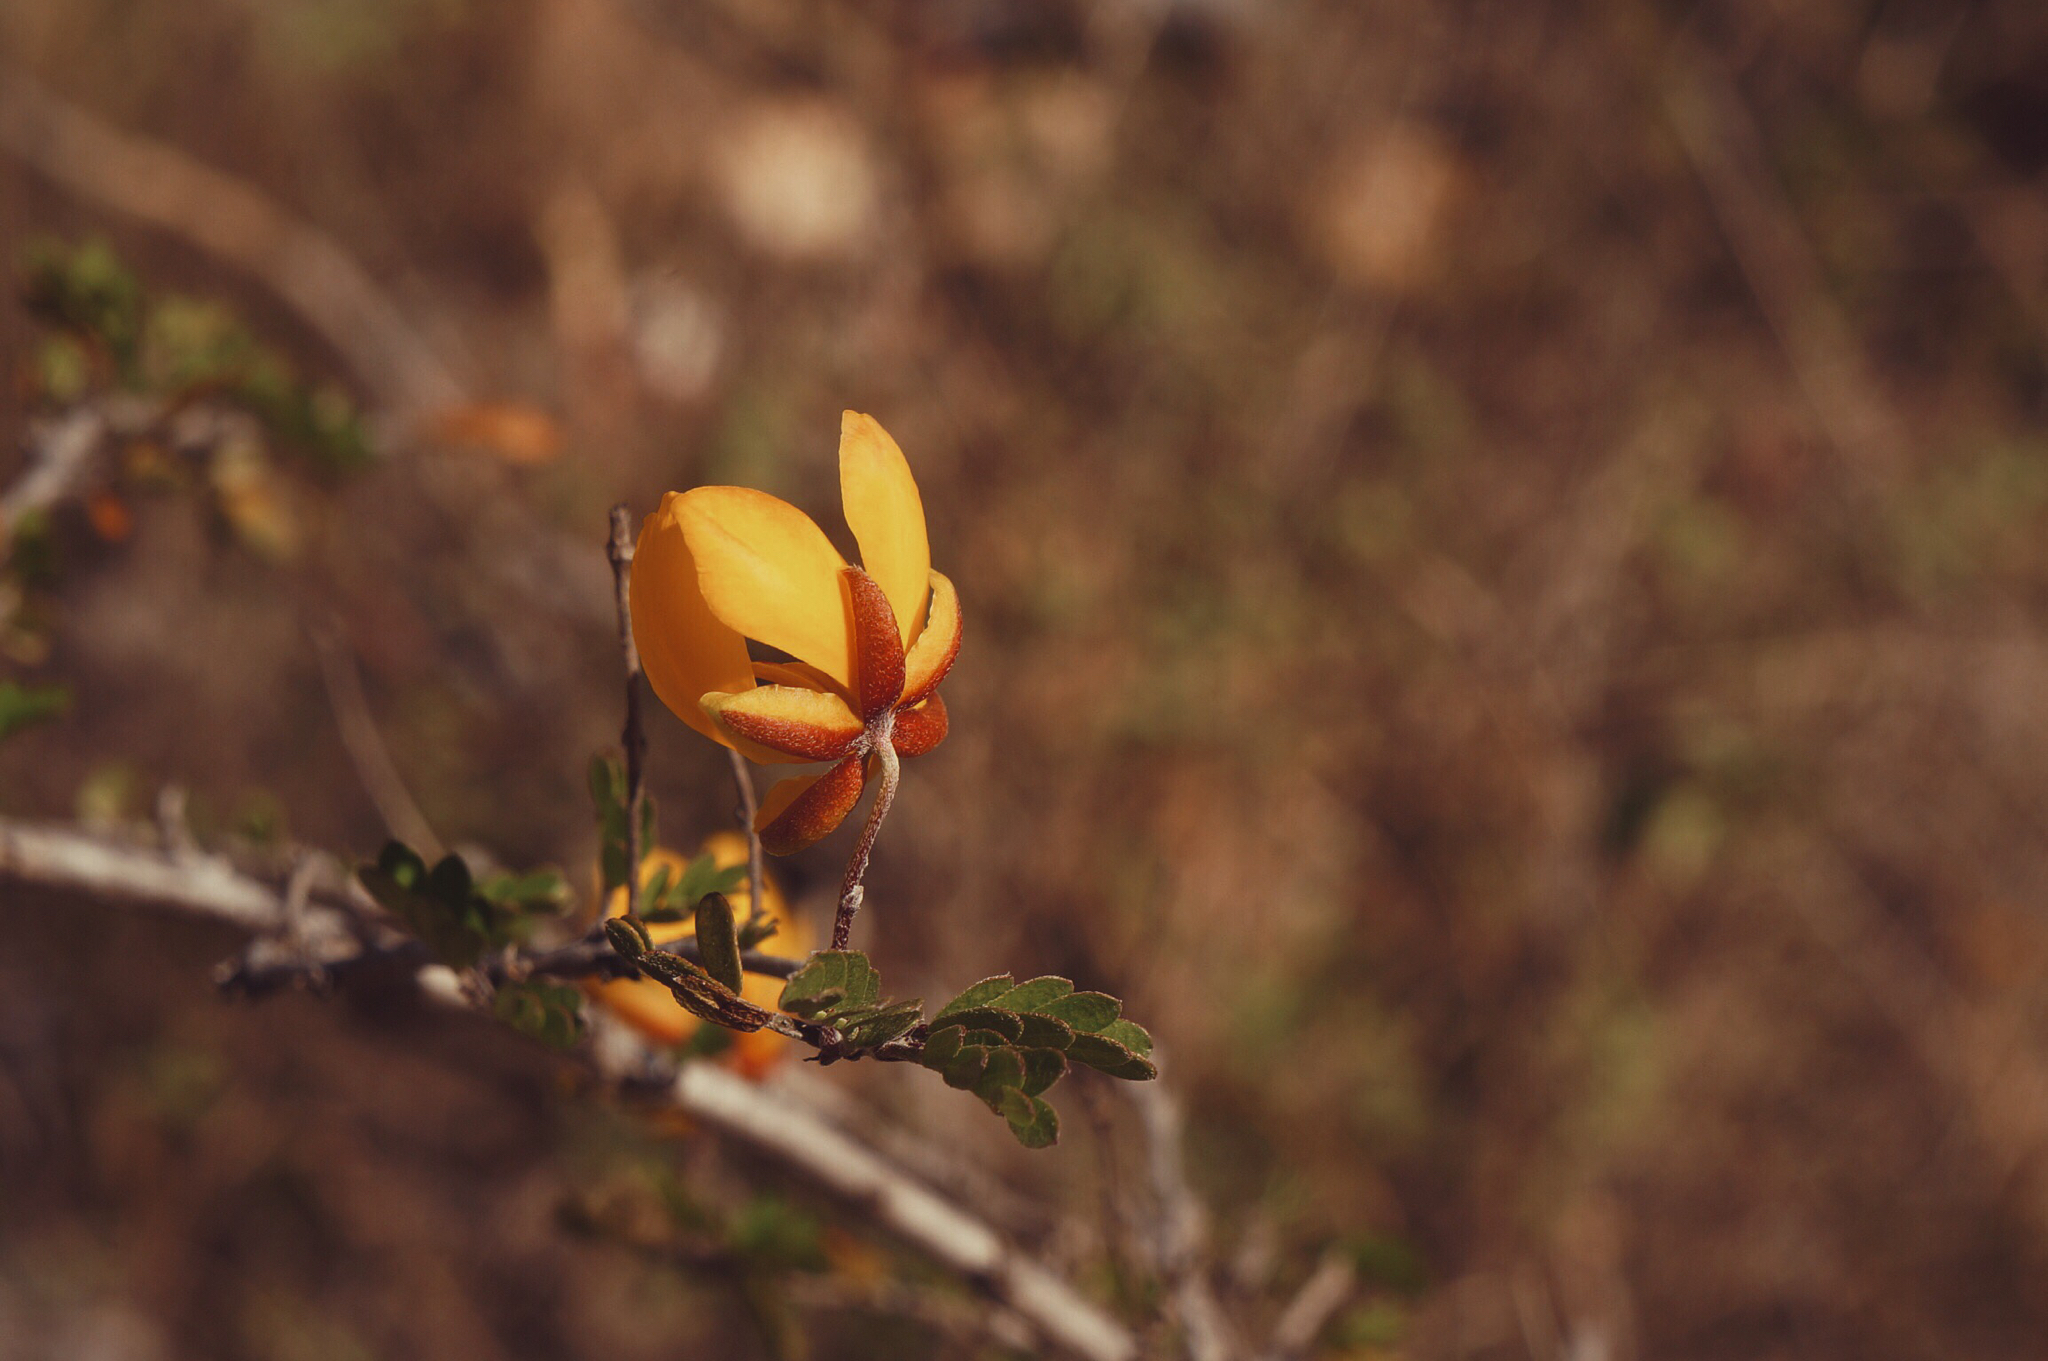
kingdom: Plantae
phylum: Tracheophyta
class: Magnoliopsida
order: Fabales
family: Fabaceae
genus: Chamaecrista
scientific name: Chamaecrista greggii
